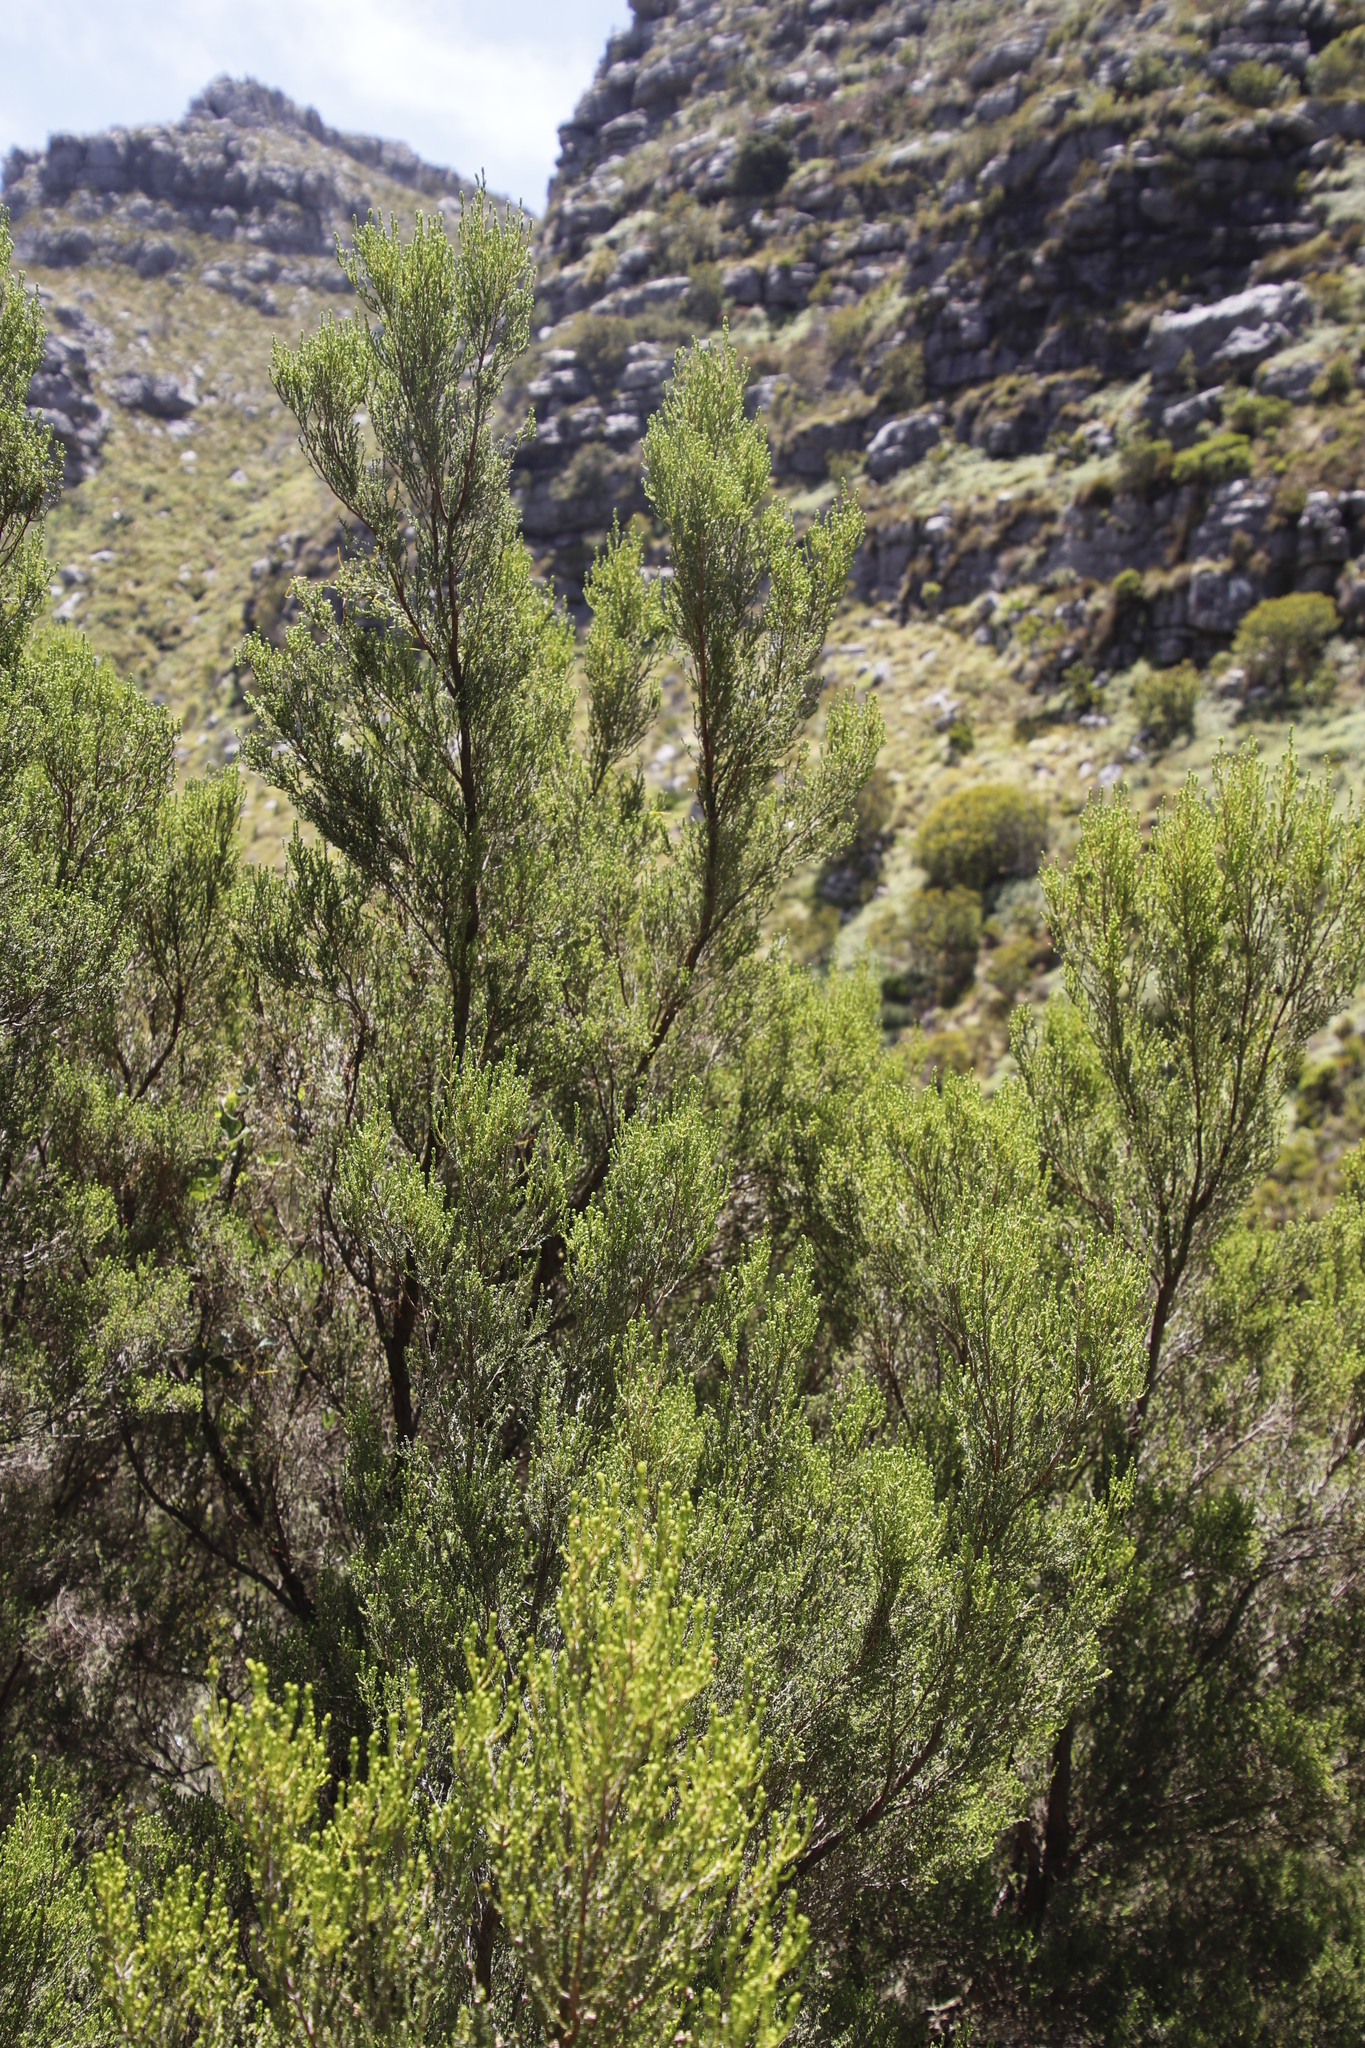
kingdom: Plantae
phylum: Tracheophyta
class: Magnoliopsida
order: Ericales
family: Ericaceae
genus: Erica
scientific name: Erica tristis
